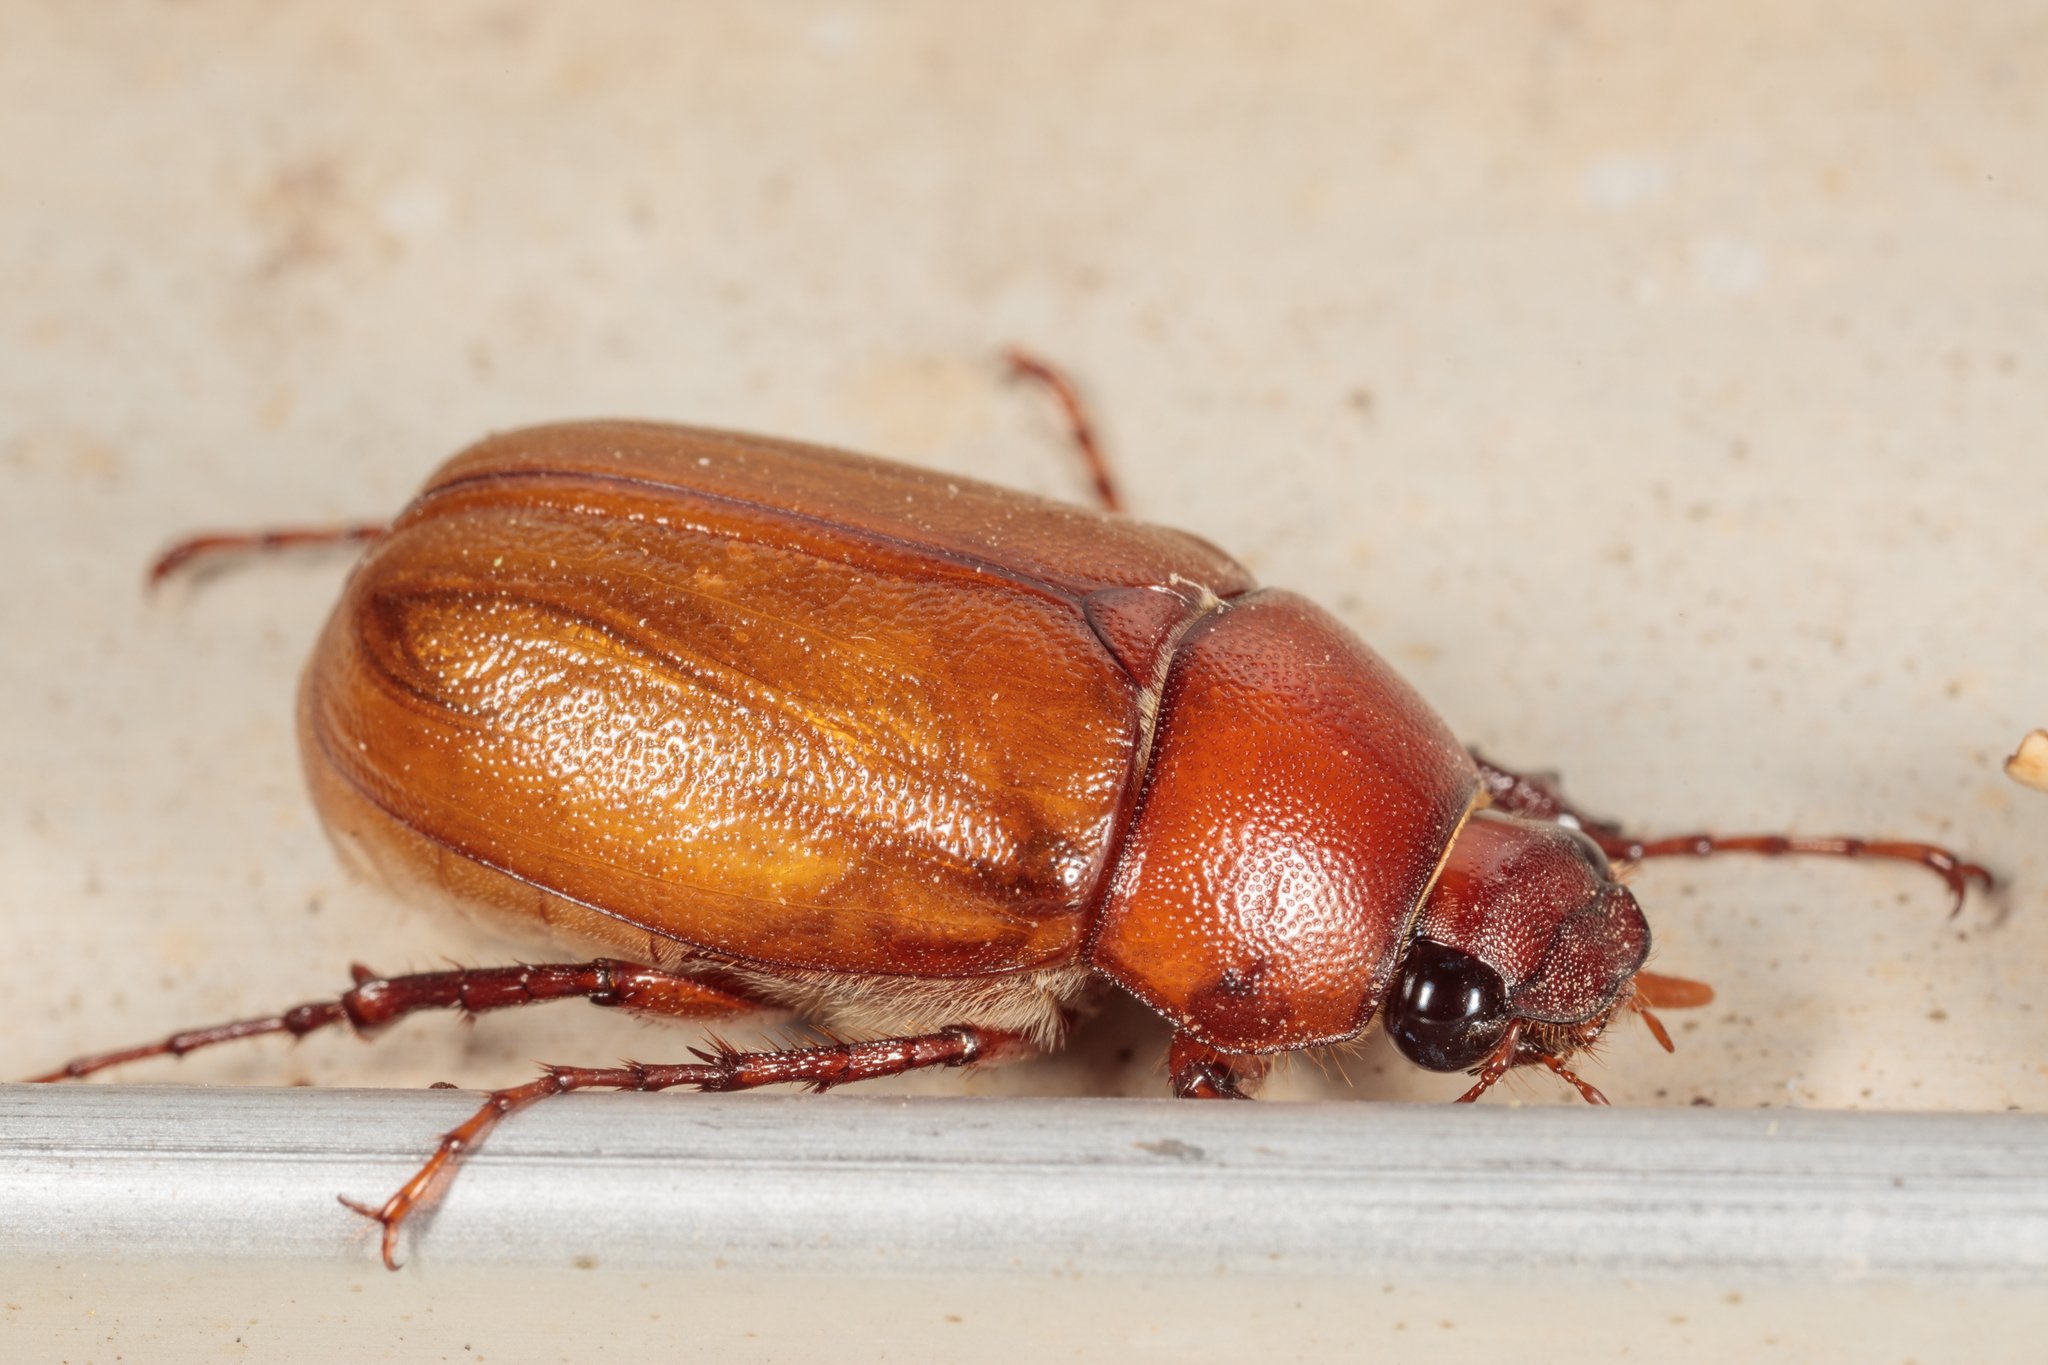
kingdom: Animalia
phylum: Arthropoda
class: Insecta
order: Coleoptera
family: Scarabaeidae
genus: Phyllophaga
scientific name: Phyllophaga torta
